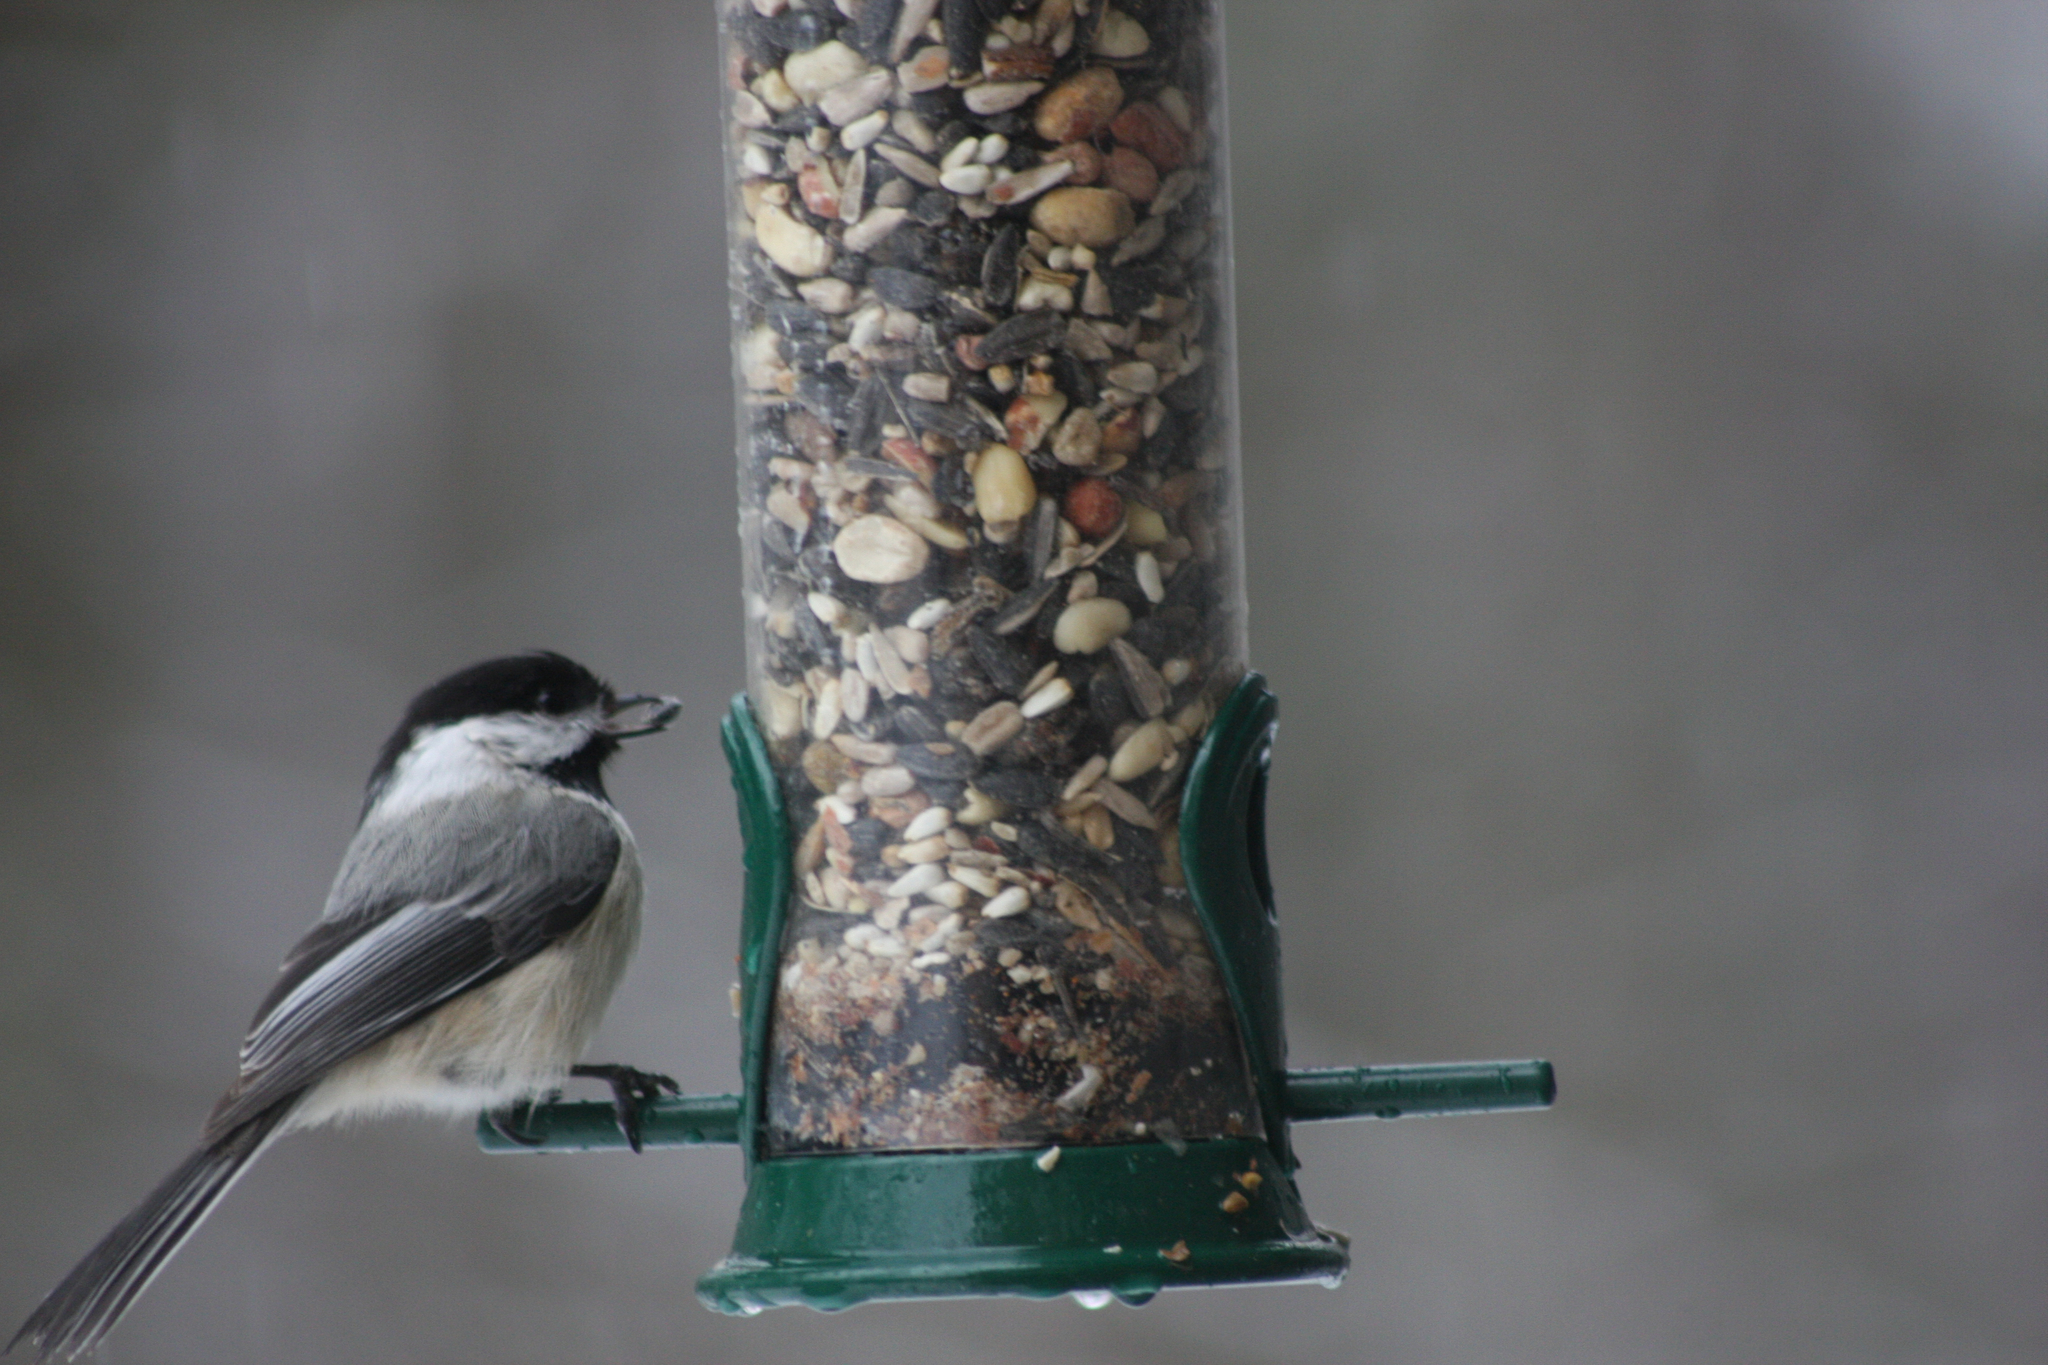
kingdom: Animalia
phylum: Chordata
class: Aves
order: Passeriformes
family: Paridae
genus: Poecile
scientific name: Poecile atricapillus
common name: Black-capped chickadee
